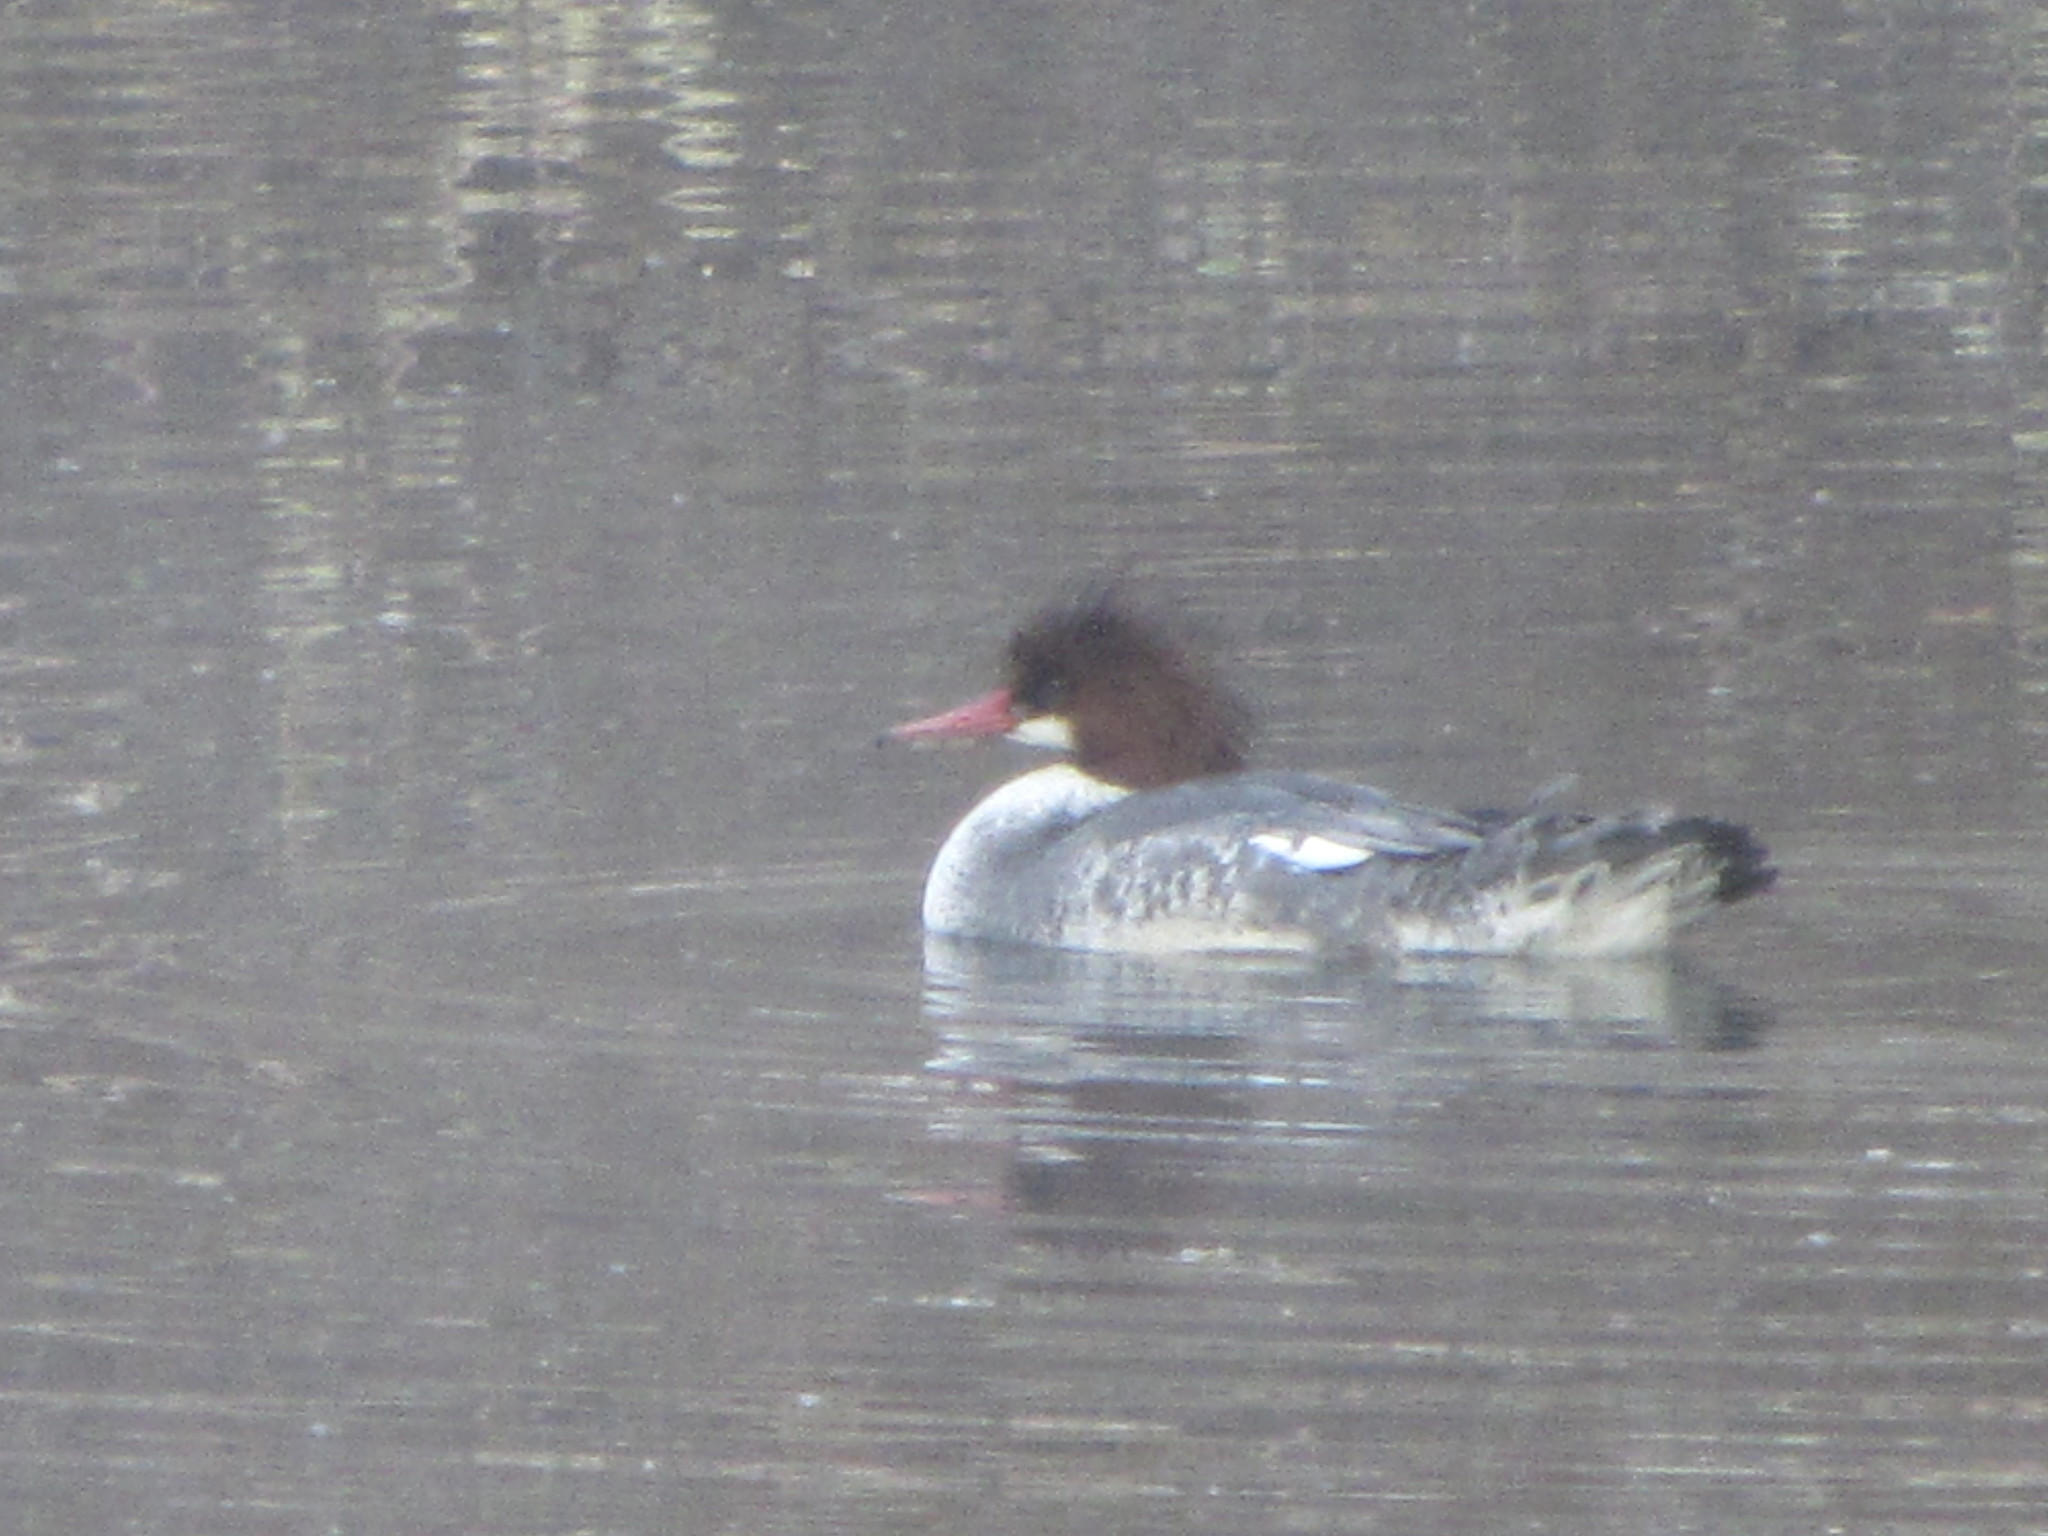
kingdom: Animalia
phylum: Chordata
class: Aves
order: Anseriformes
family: Anatidae
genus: Mergus
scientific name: Mergus merganser
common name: Common merganser
